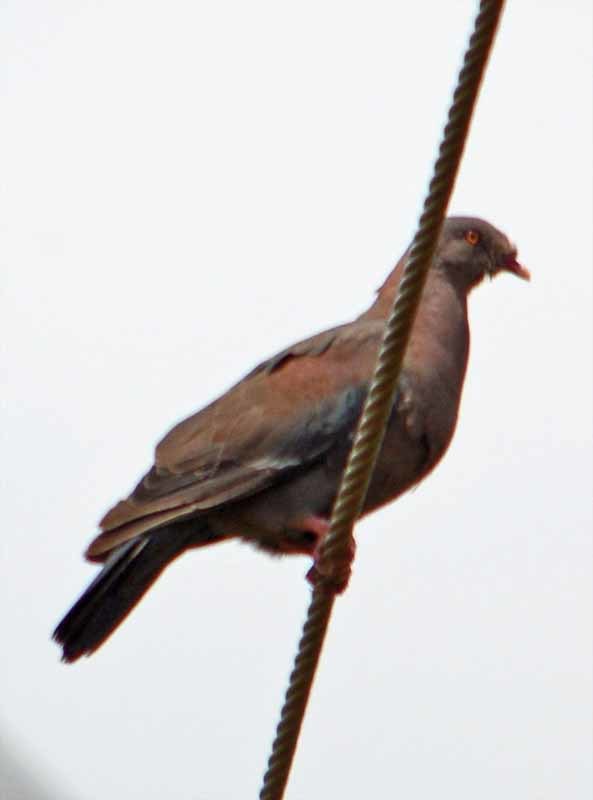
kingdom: Animalia
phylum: Chordata
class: Aves
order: Columbiformes
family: Columbidae
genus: Patagioenas
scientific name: Patagioenas flavirostris
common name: Red-billed pigeon
